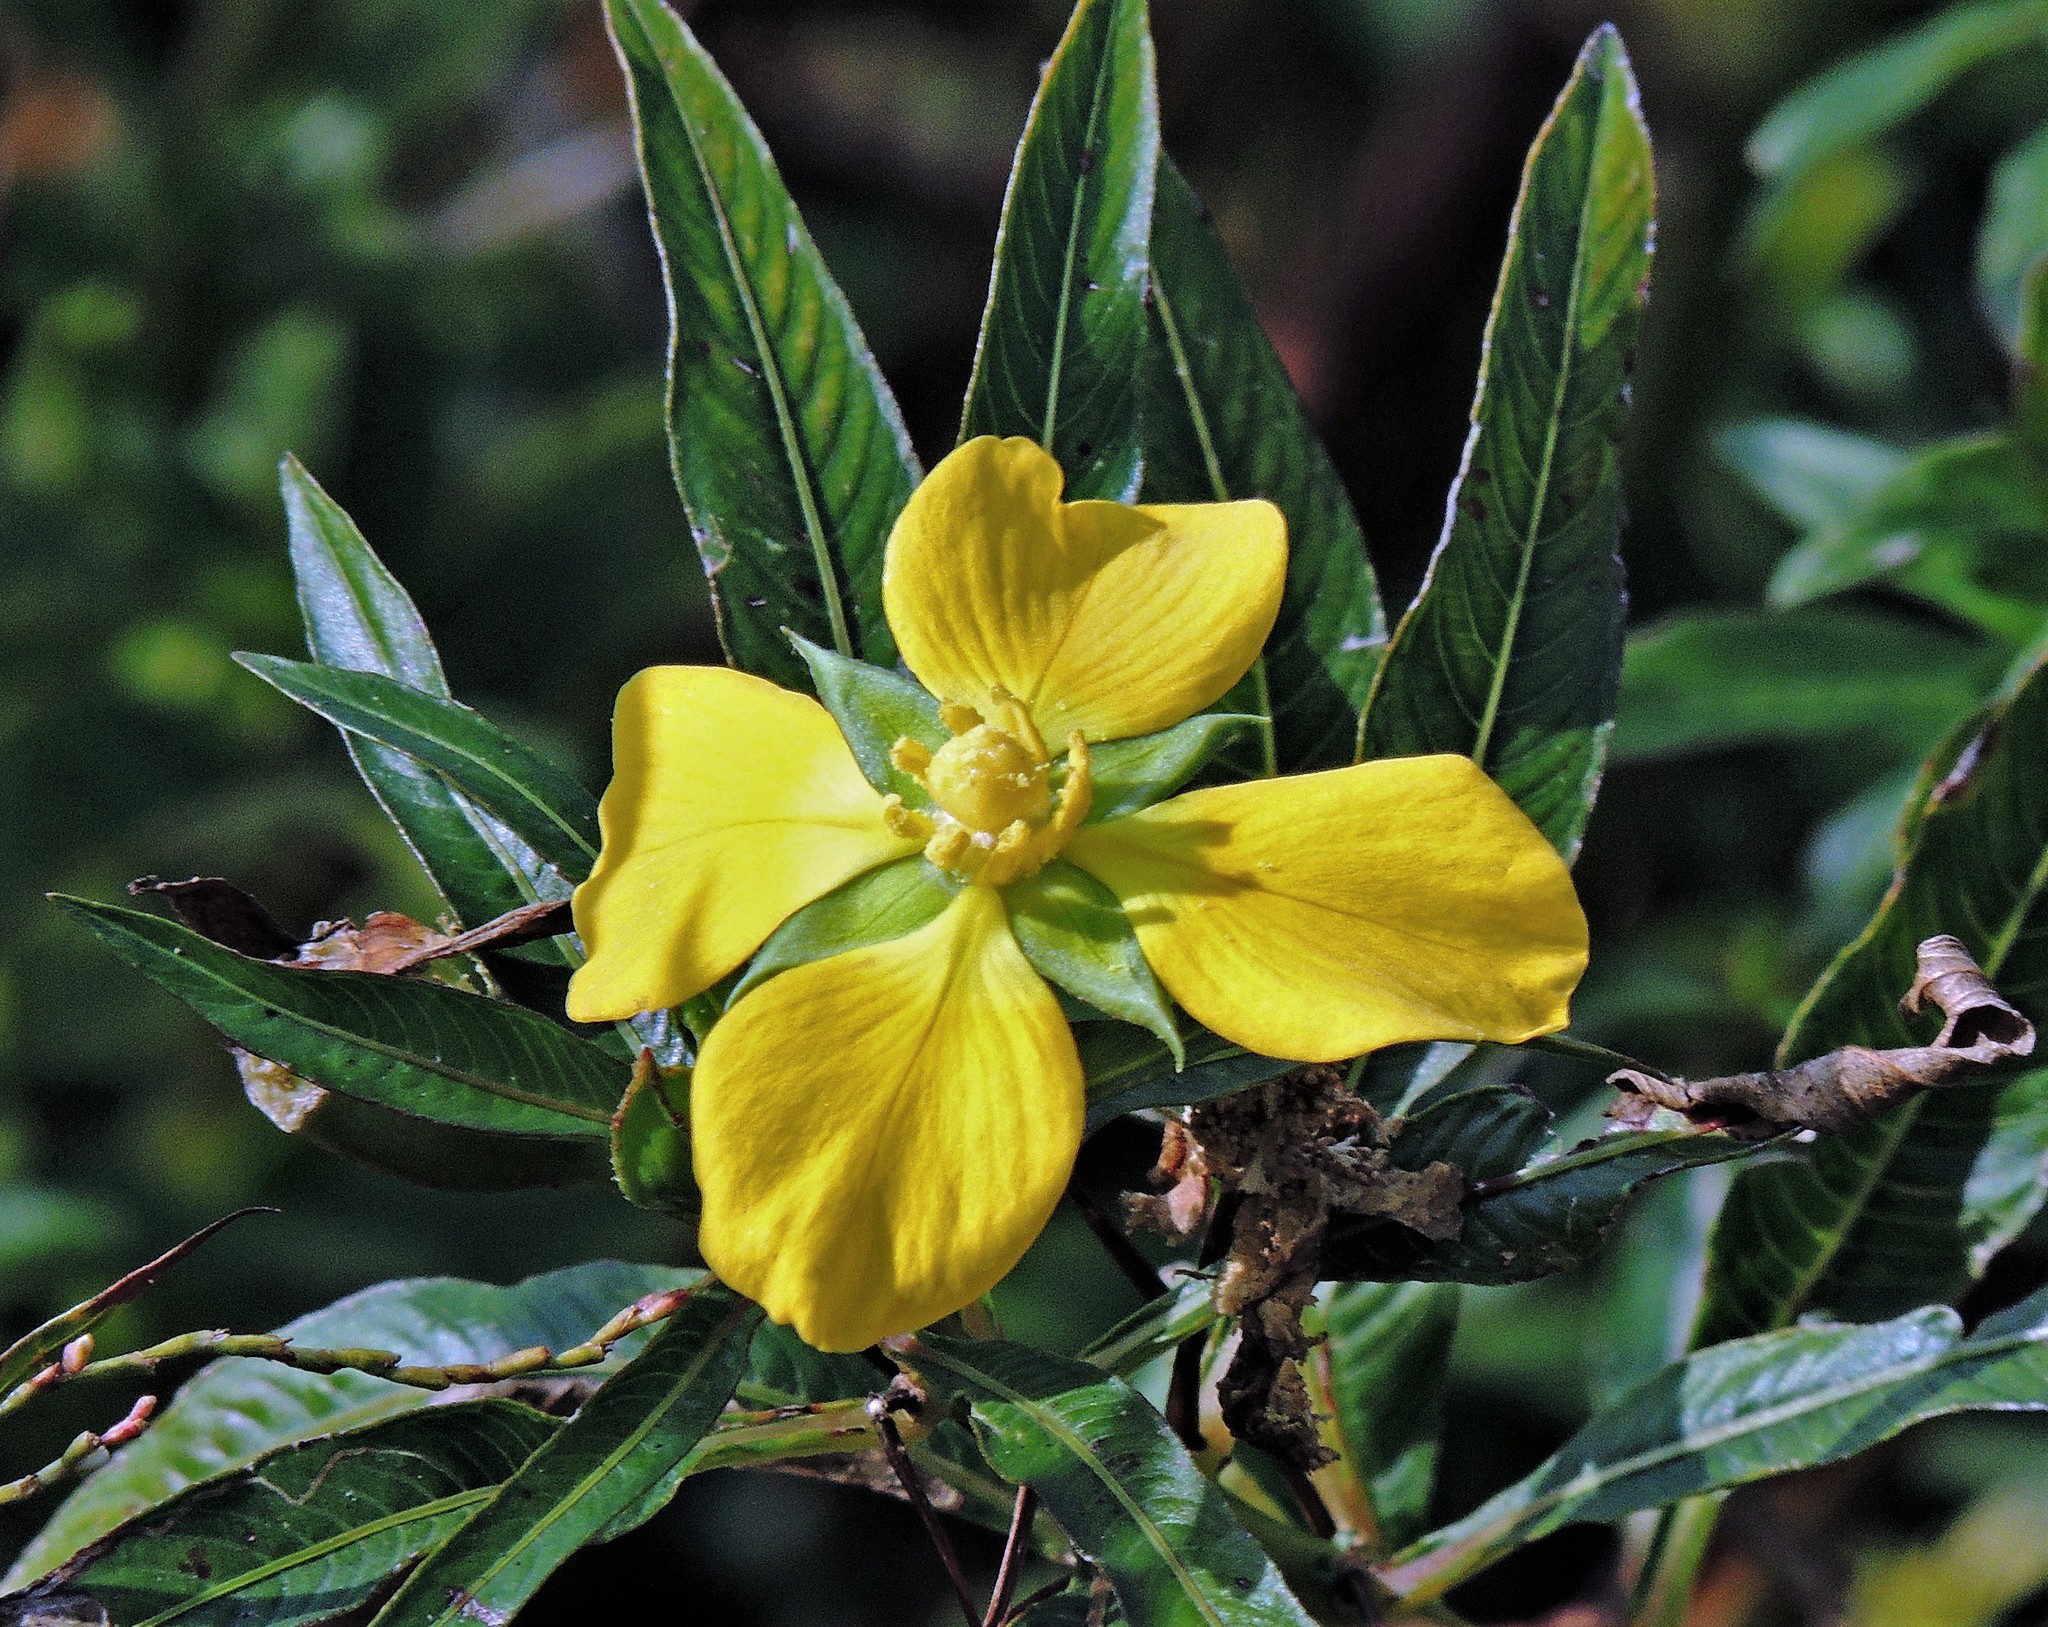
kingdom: Plantae
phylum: Tracheophyta
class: Magnoliopsida
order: Myrtales
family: Onagraceae
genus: Ludwigia
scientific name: Ludwigia elegans
